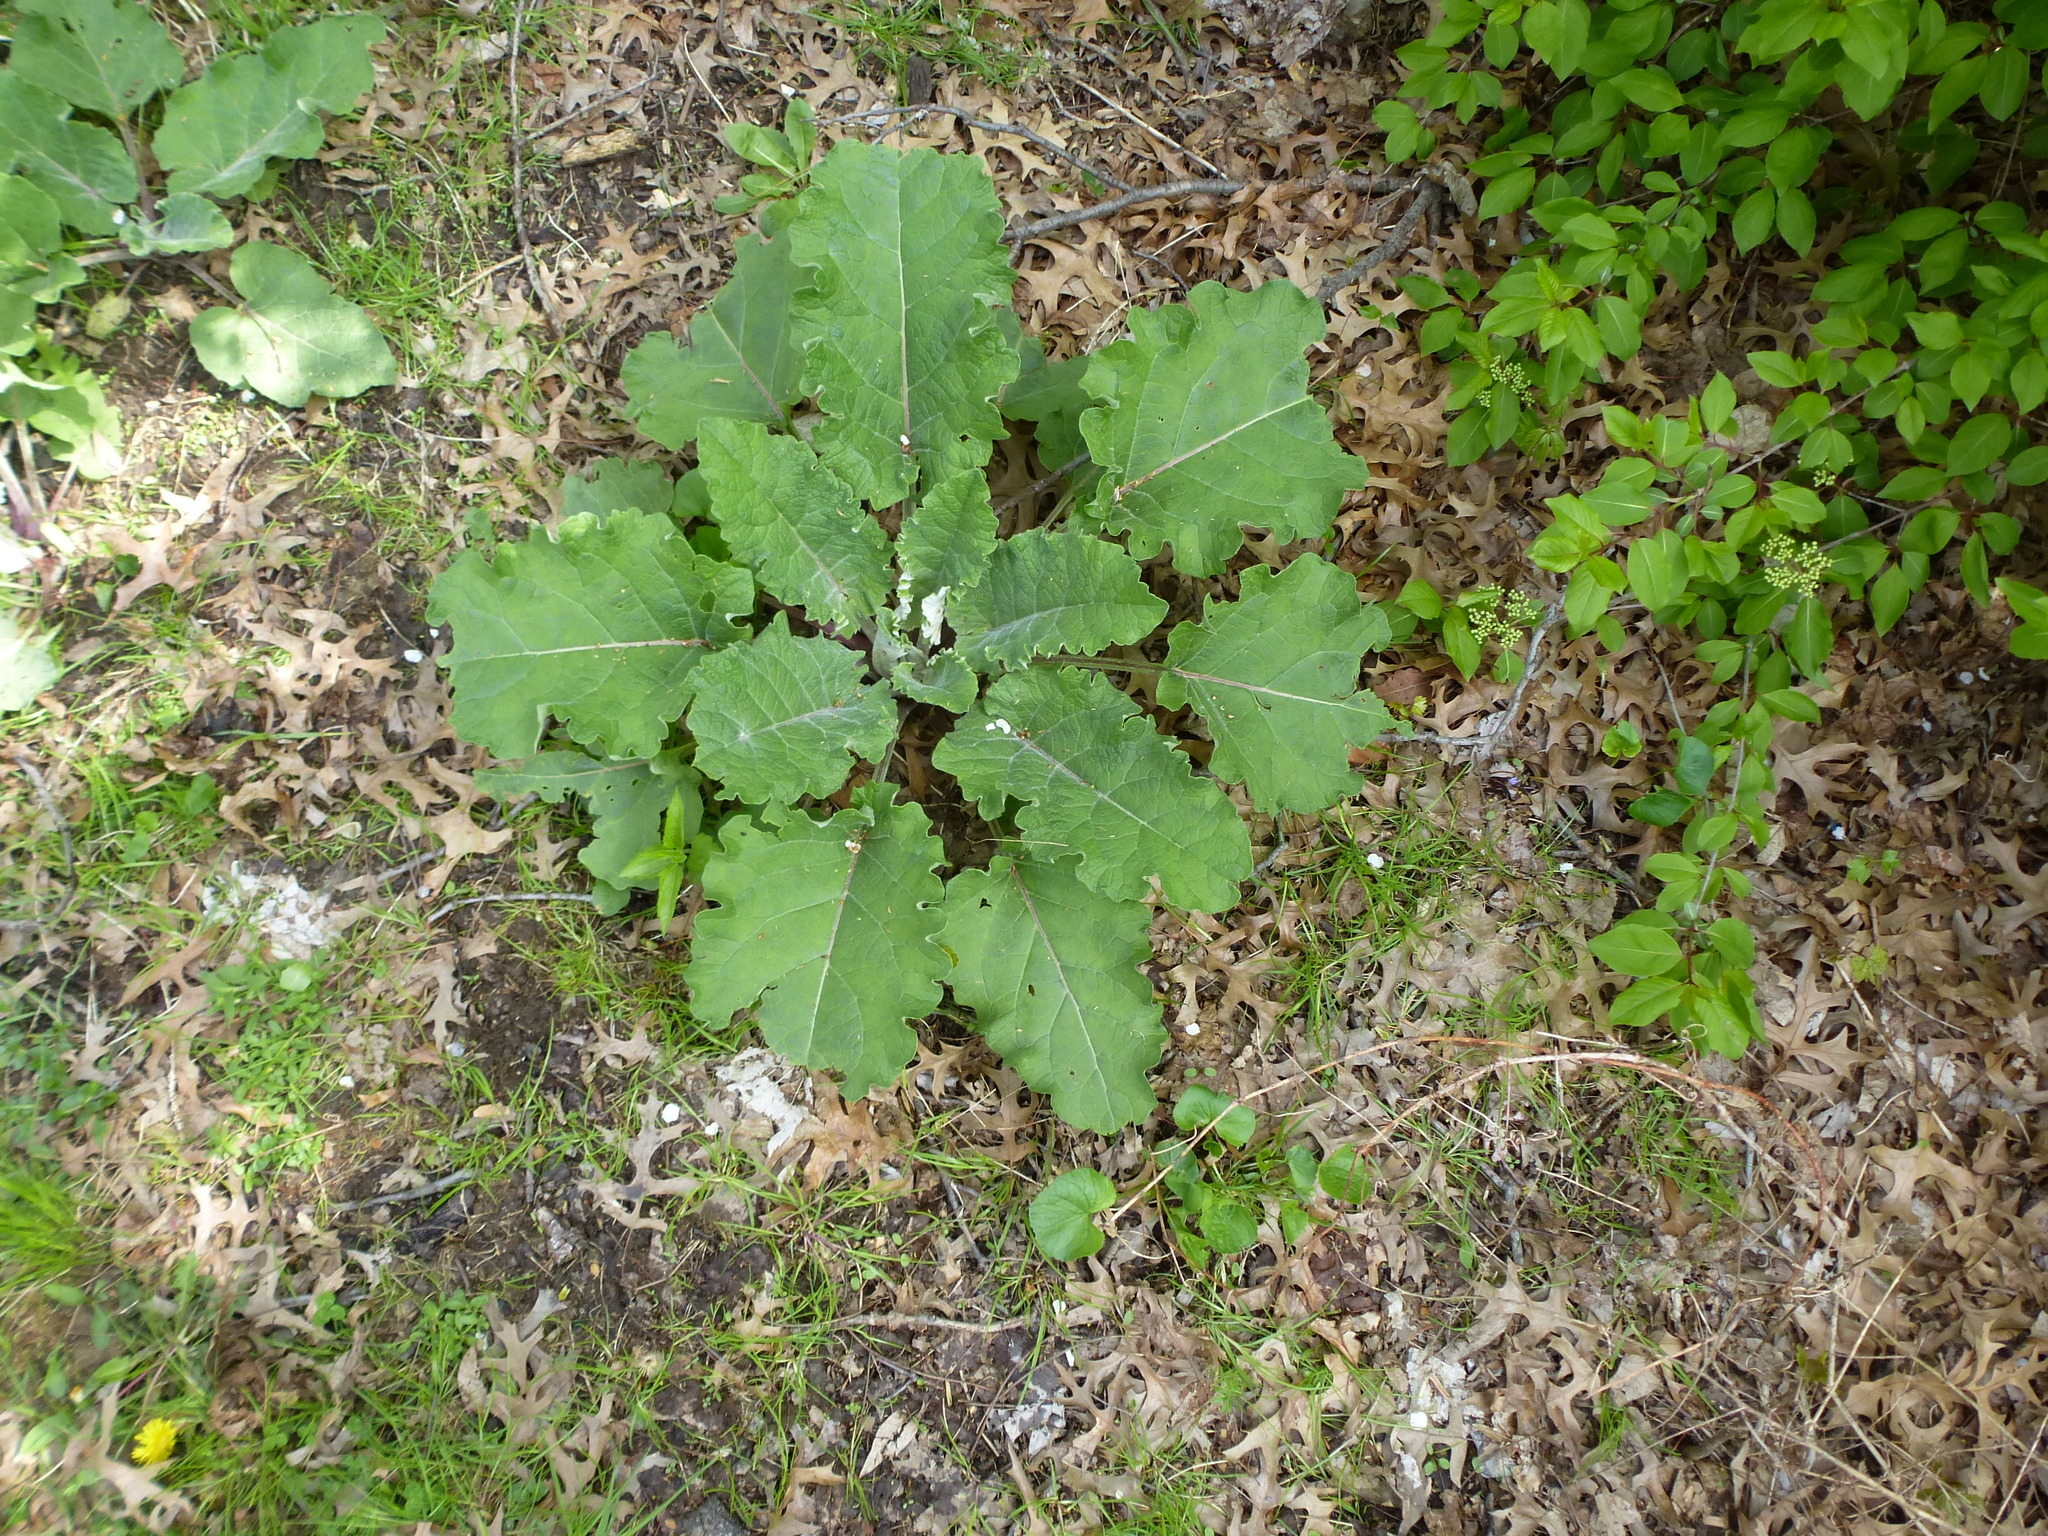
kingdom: Plantae
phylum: Tracheophyta
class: Magnoliopsida
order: Asterales
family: Asteraceae
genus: Arctium
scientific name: Arctium
